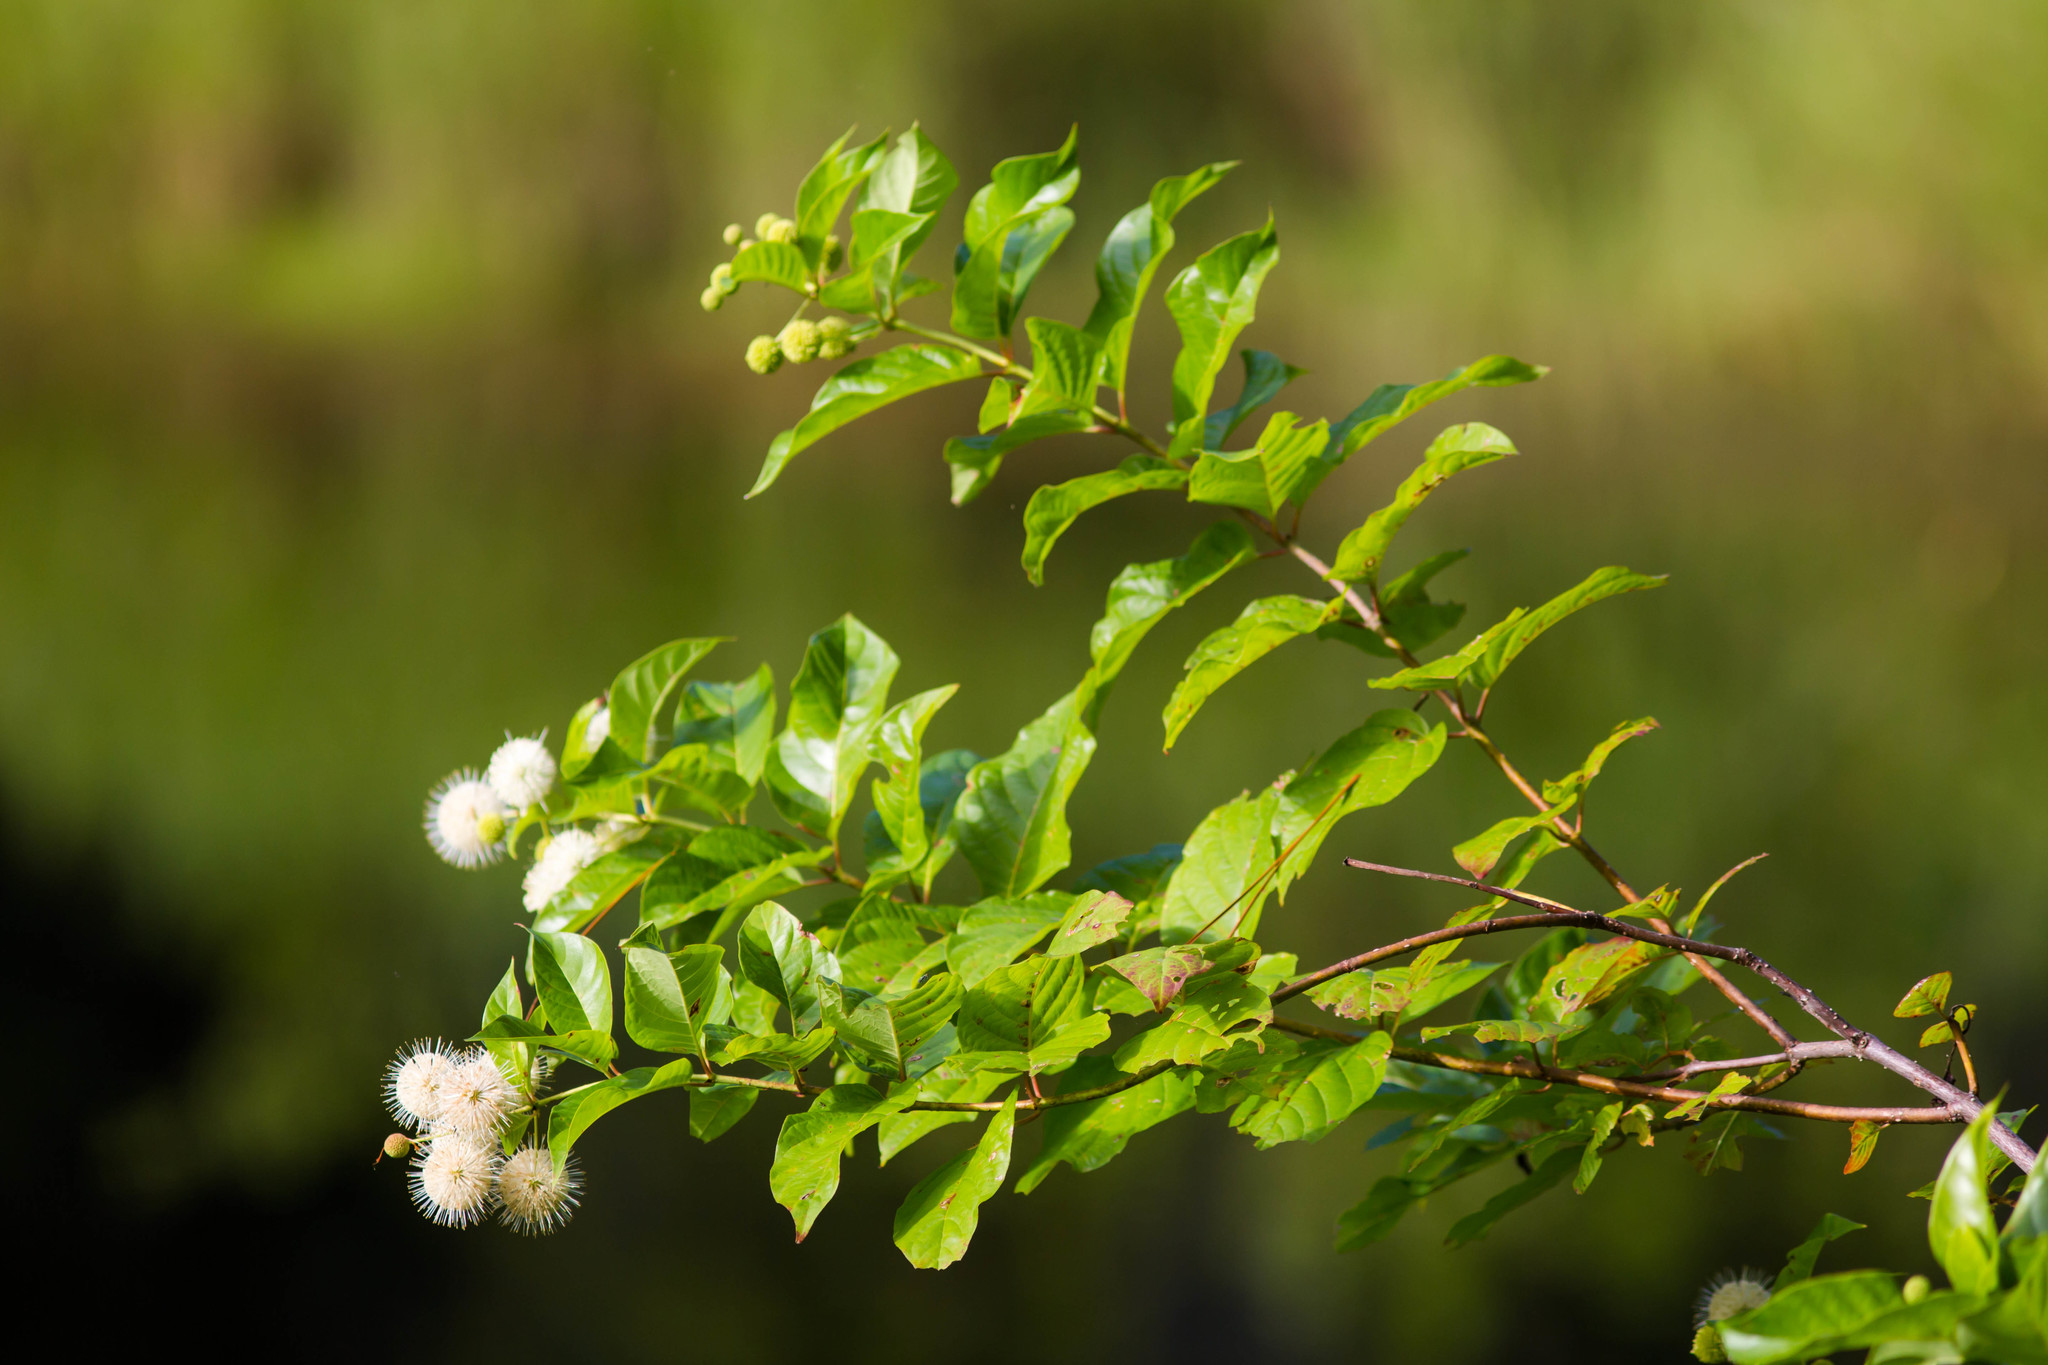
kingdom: Plantae
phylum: Tracheophyta
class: Magnoliopsida
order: Gentianales
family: Rubiaceae
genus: Cephalanthus
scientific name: Cephalanthus occidentalis
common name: Button-willow
